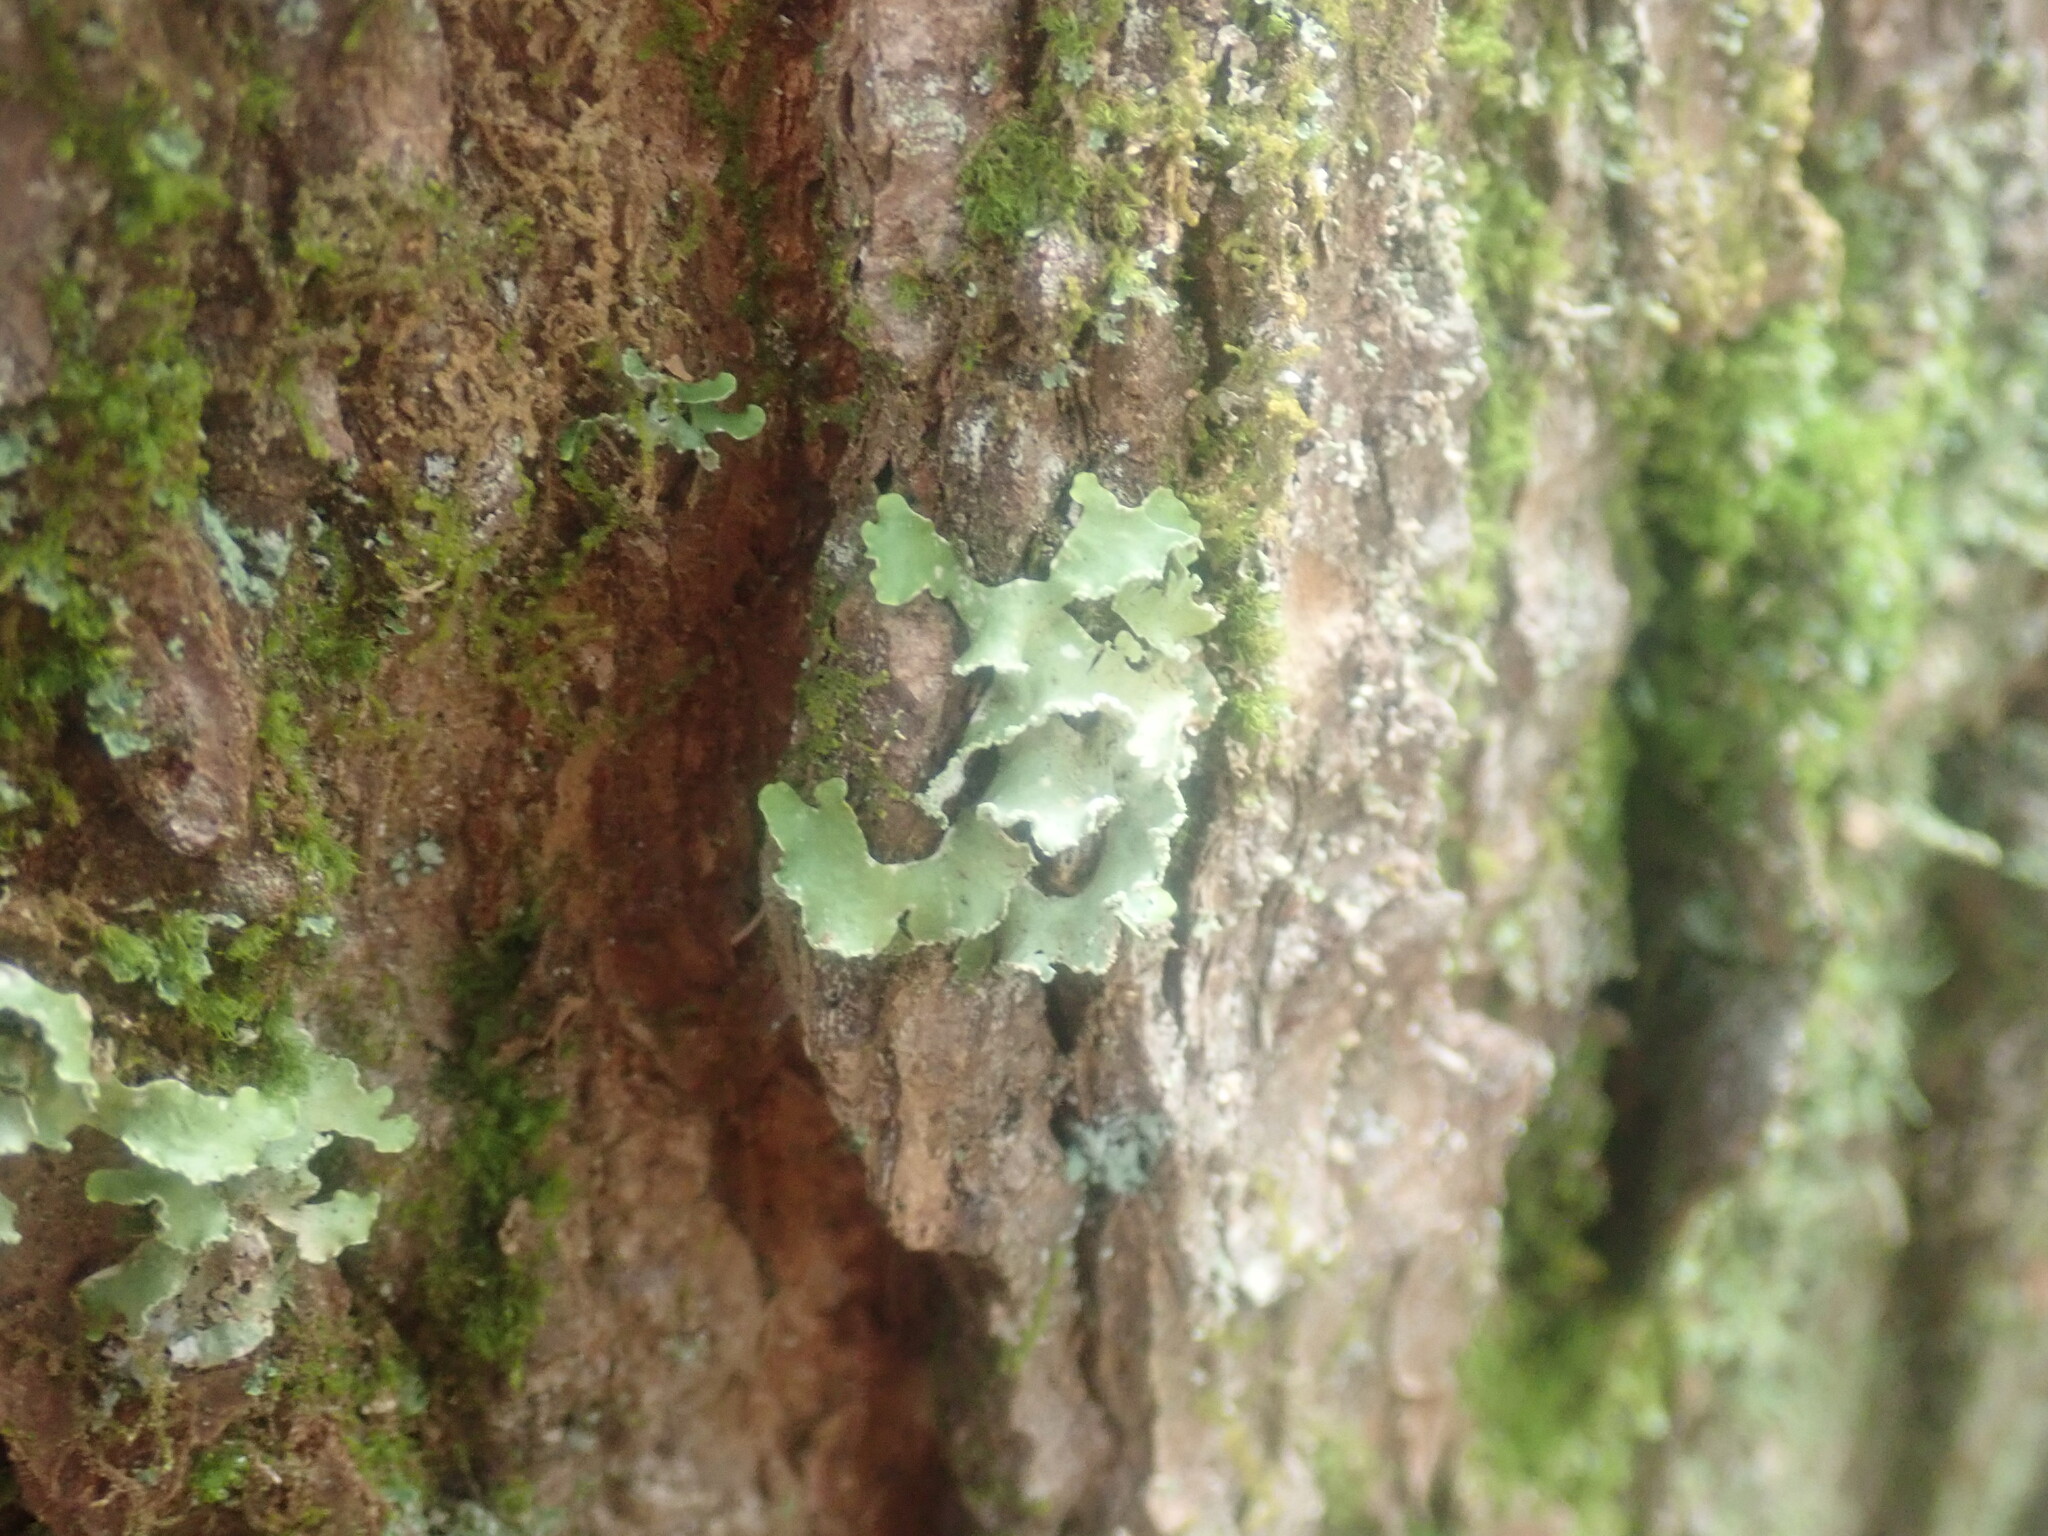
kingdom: Fungi
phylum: Ascomycota
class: Lecanoromycetes
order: Lecanorales
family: Parmeliaceae
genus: Usnocetraria
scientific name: Usnocetraria oakesiana
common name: Yellow ribbon lichen
